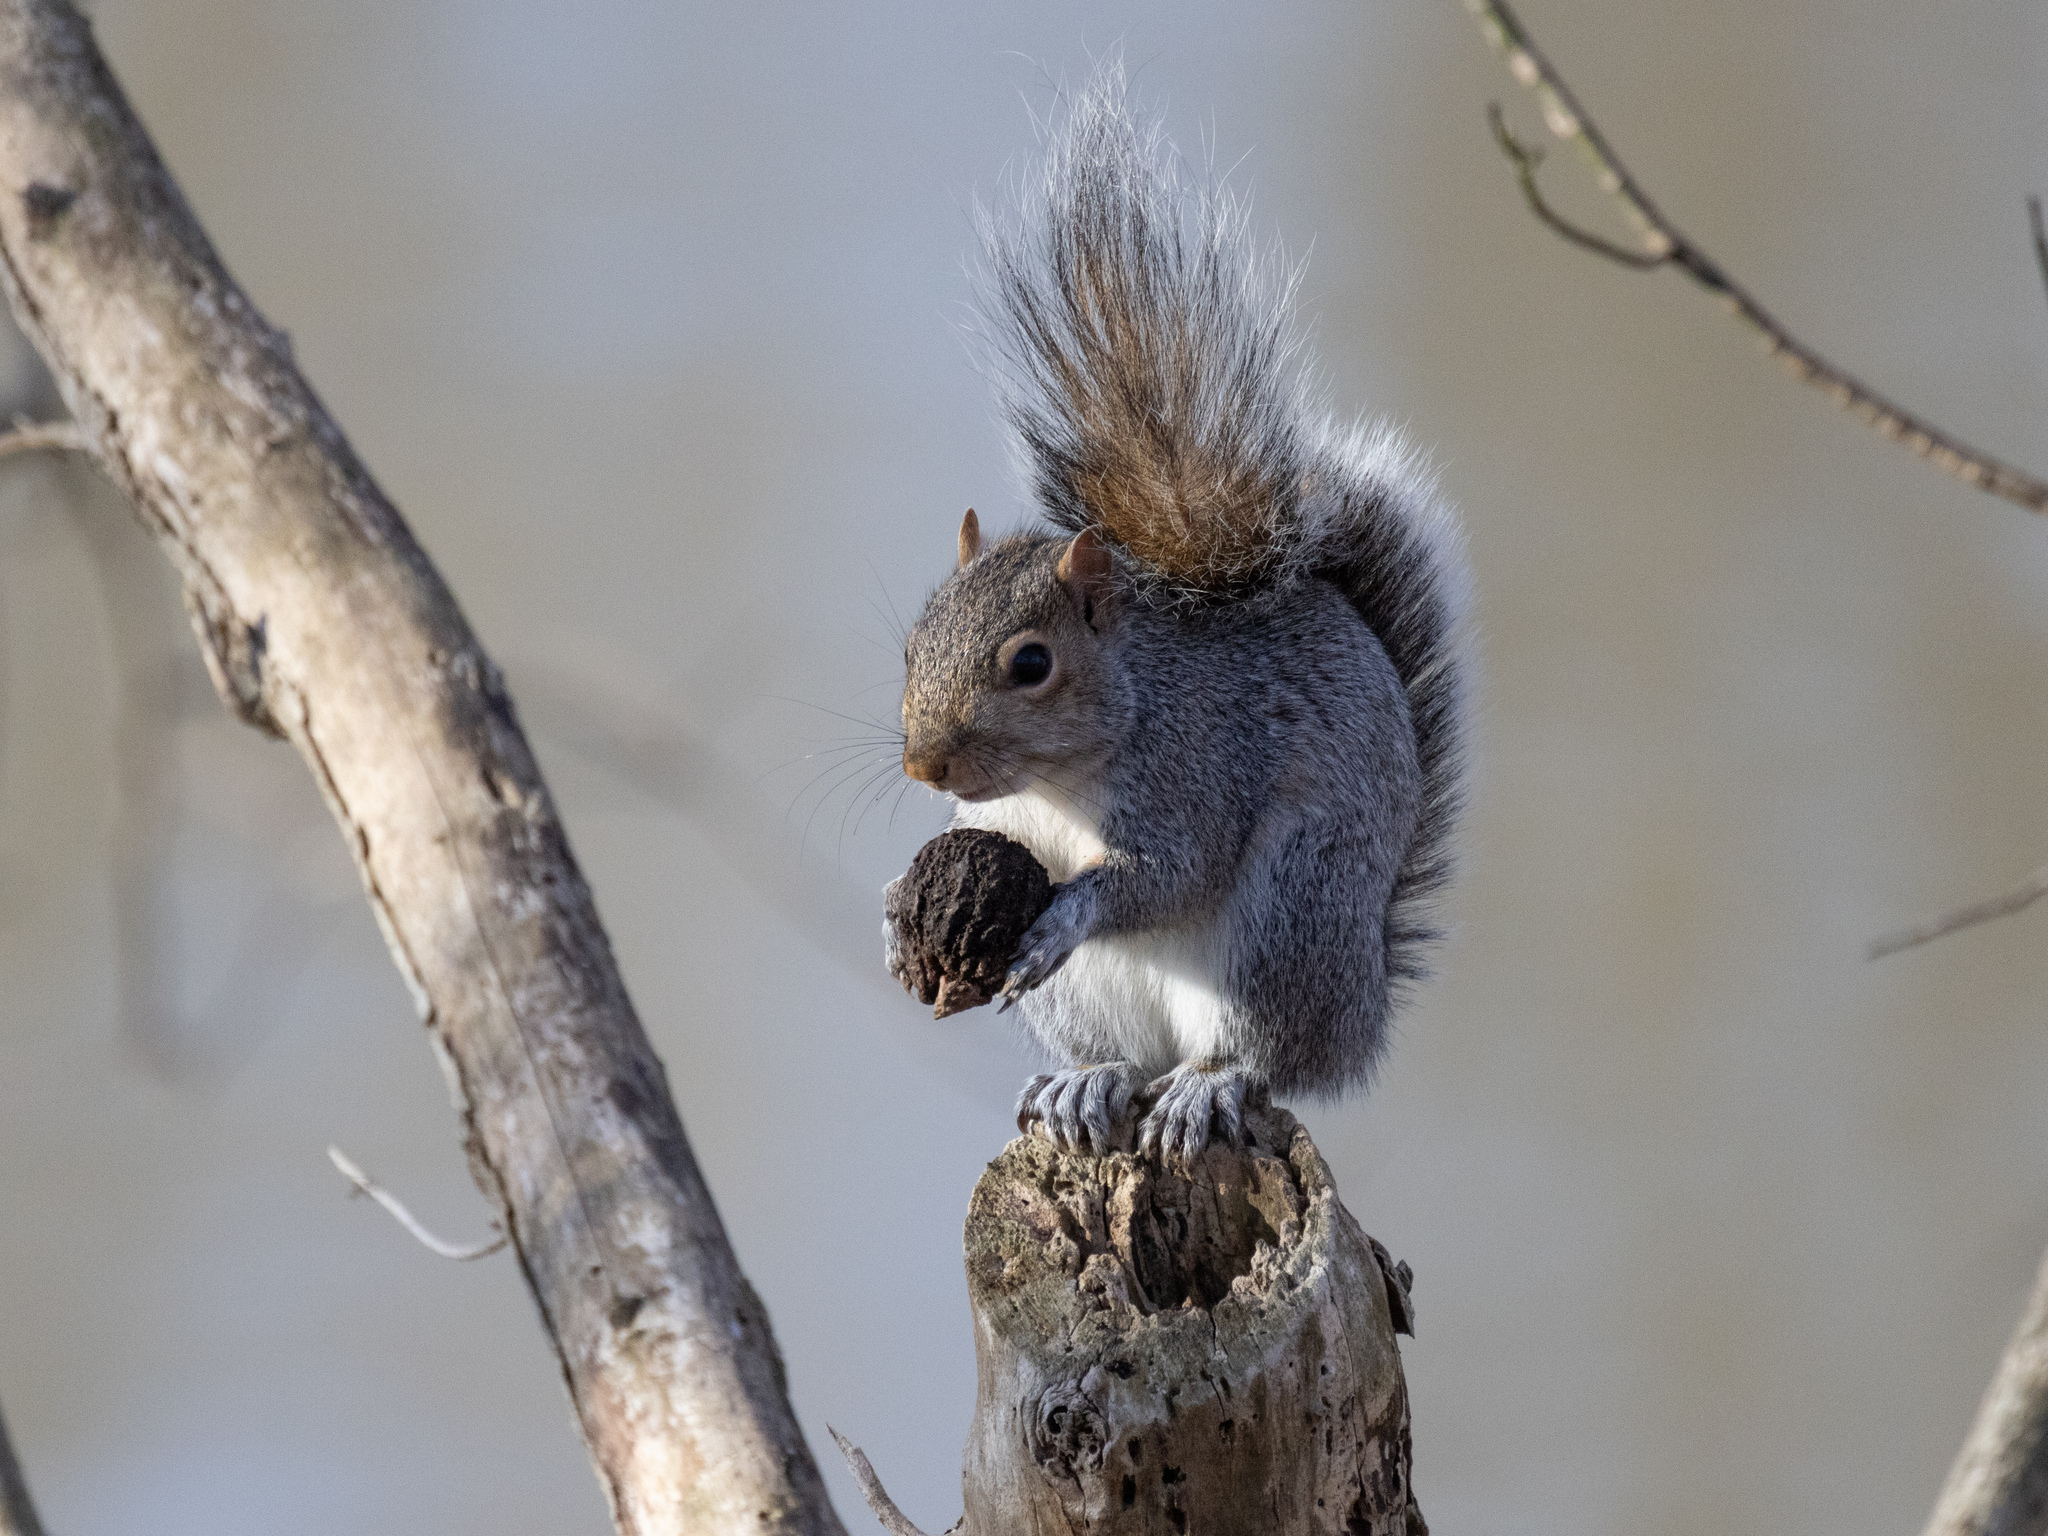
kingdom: Animalia
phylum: Chordata
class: Mammalia
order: Rodentia
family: Sciuridae
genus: Sciurus
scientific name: Sciurus carolinensis
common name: Eastern gray squirrel
